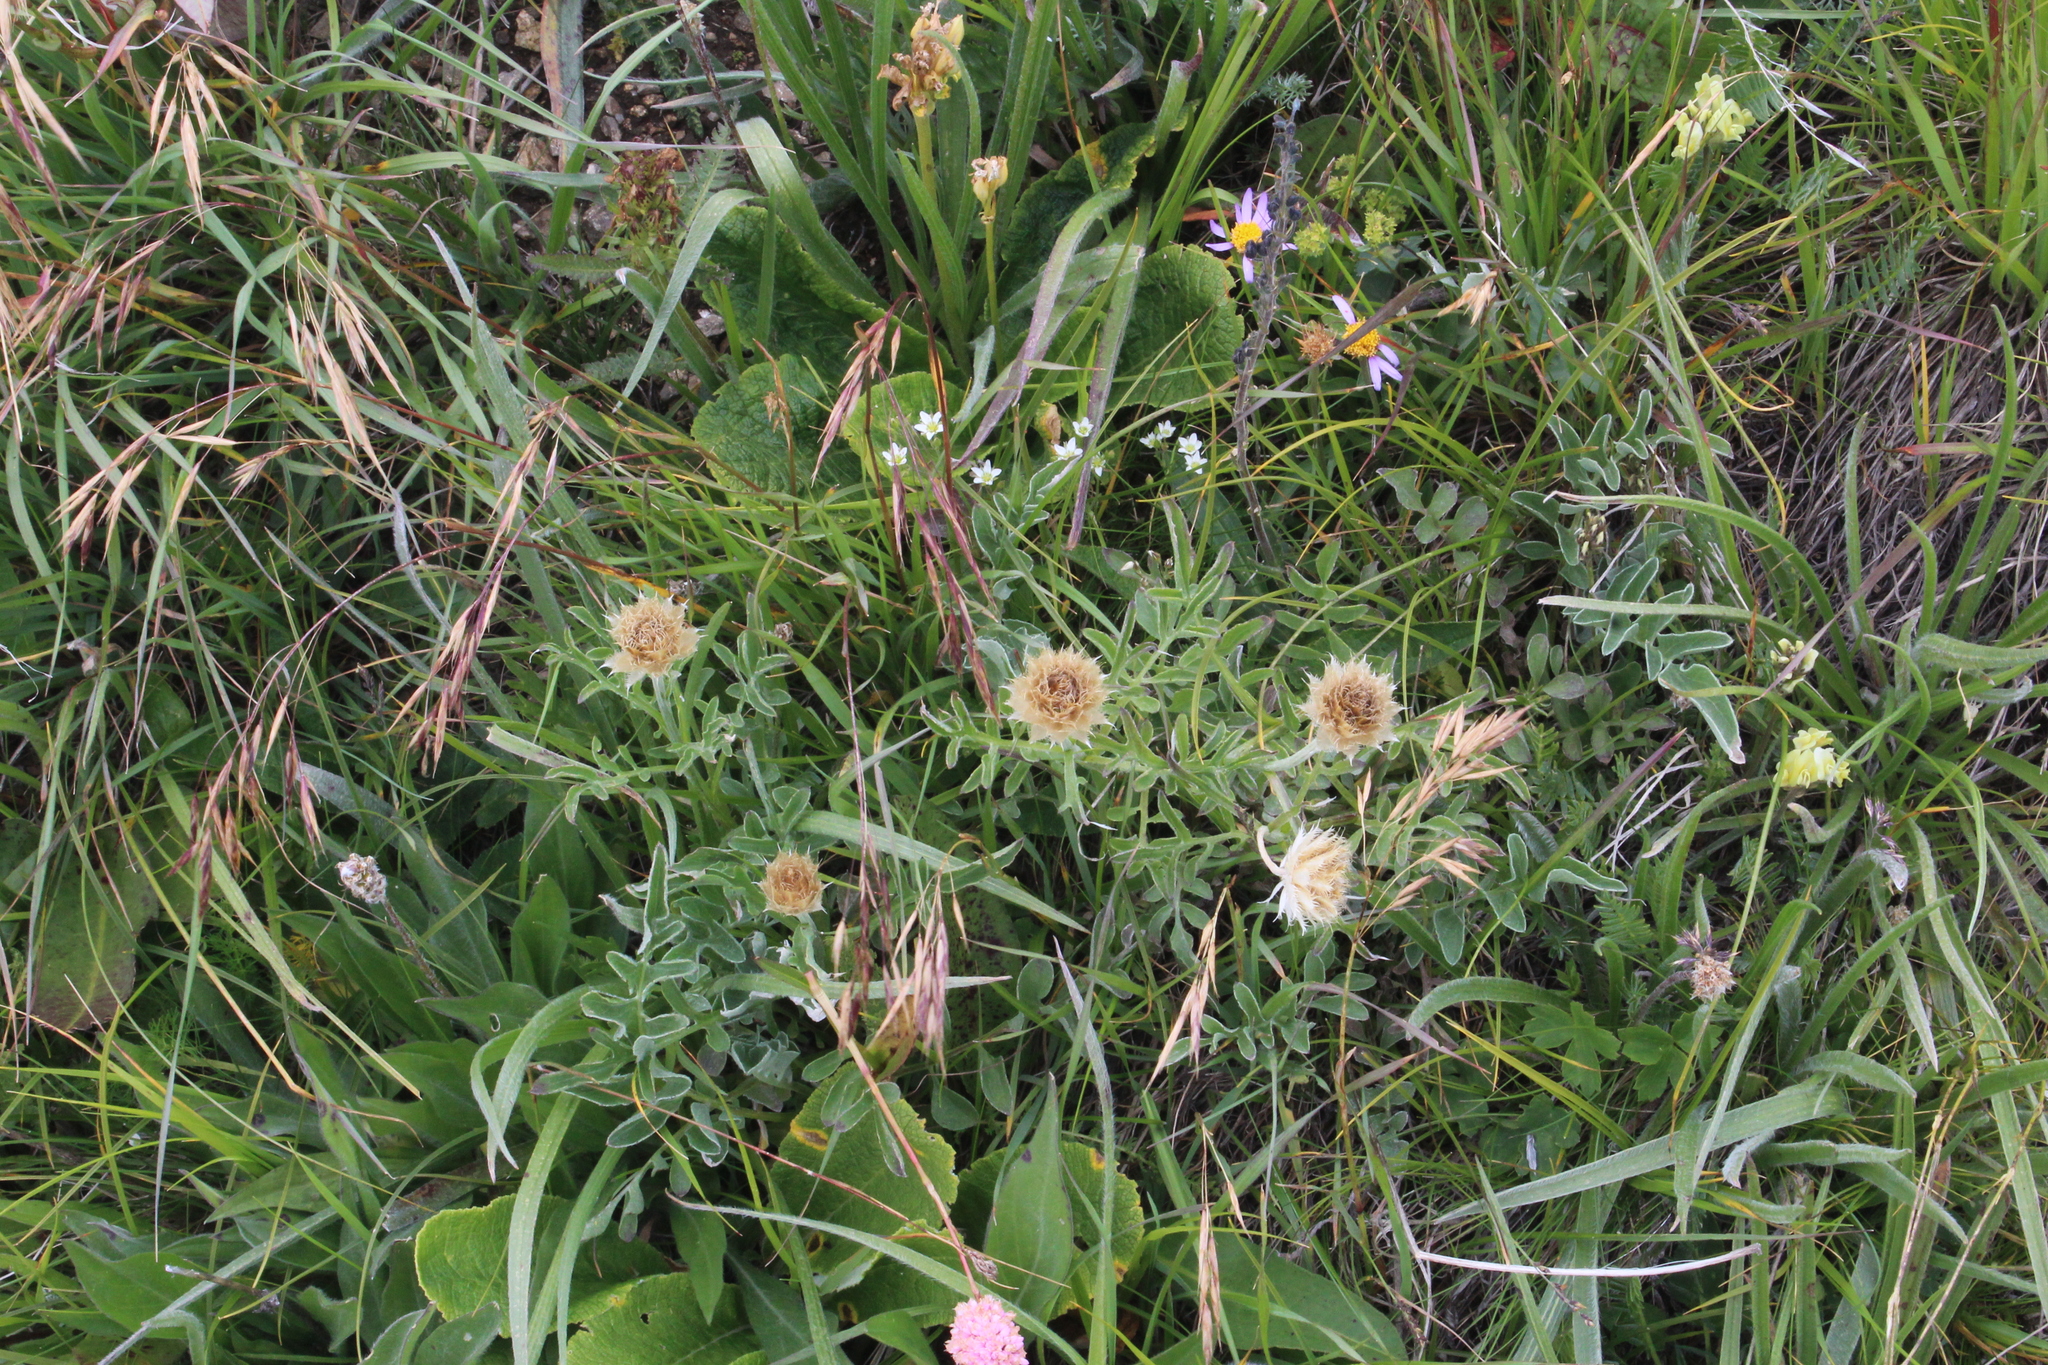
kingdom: Plantae
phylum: Tracheophyta
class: Magnoliopsida
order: Asterales
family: Asteraceae
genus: Psephellus
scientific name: Psephellus caucasicus
